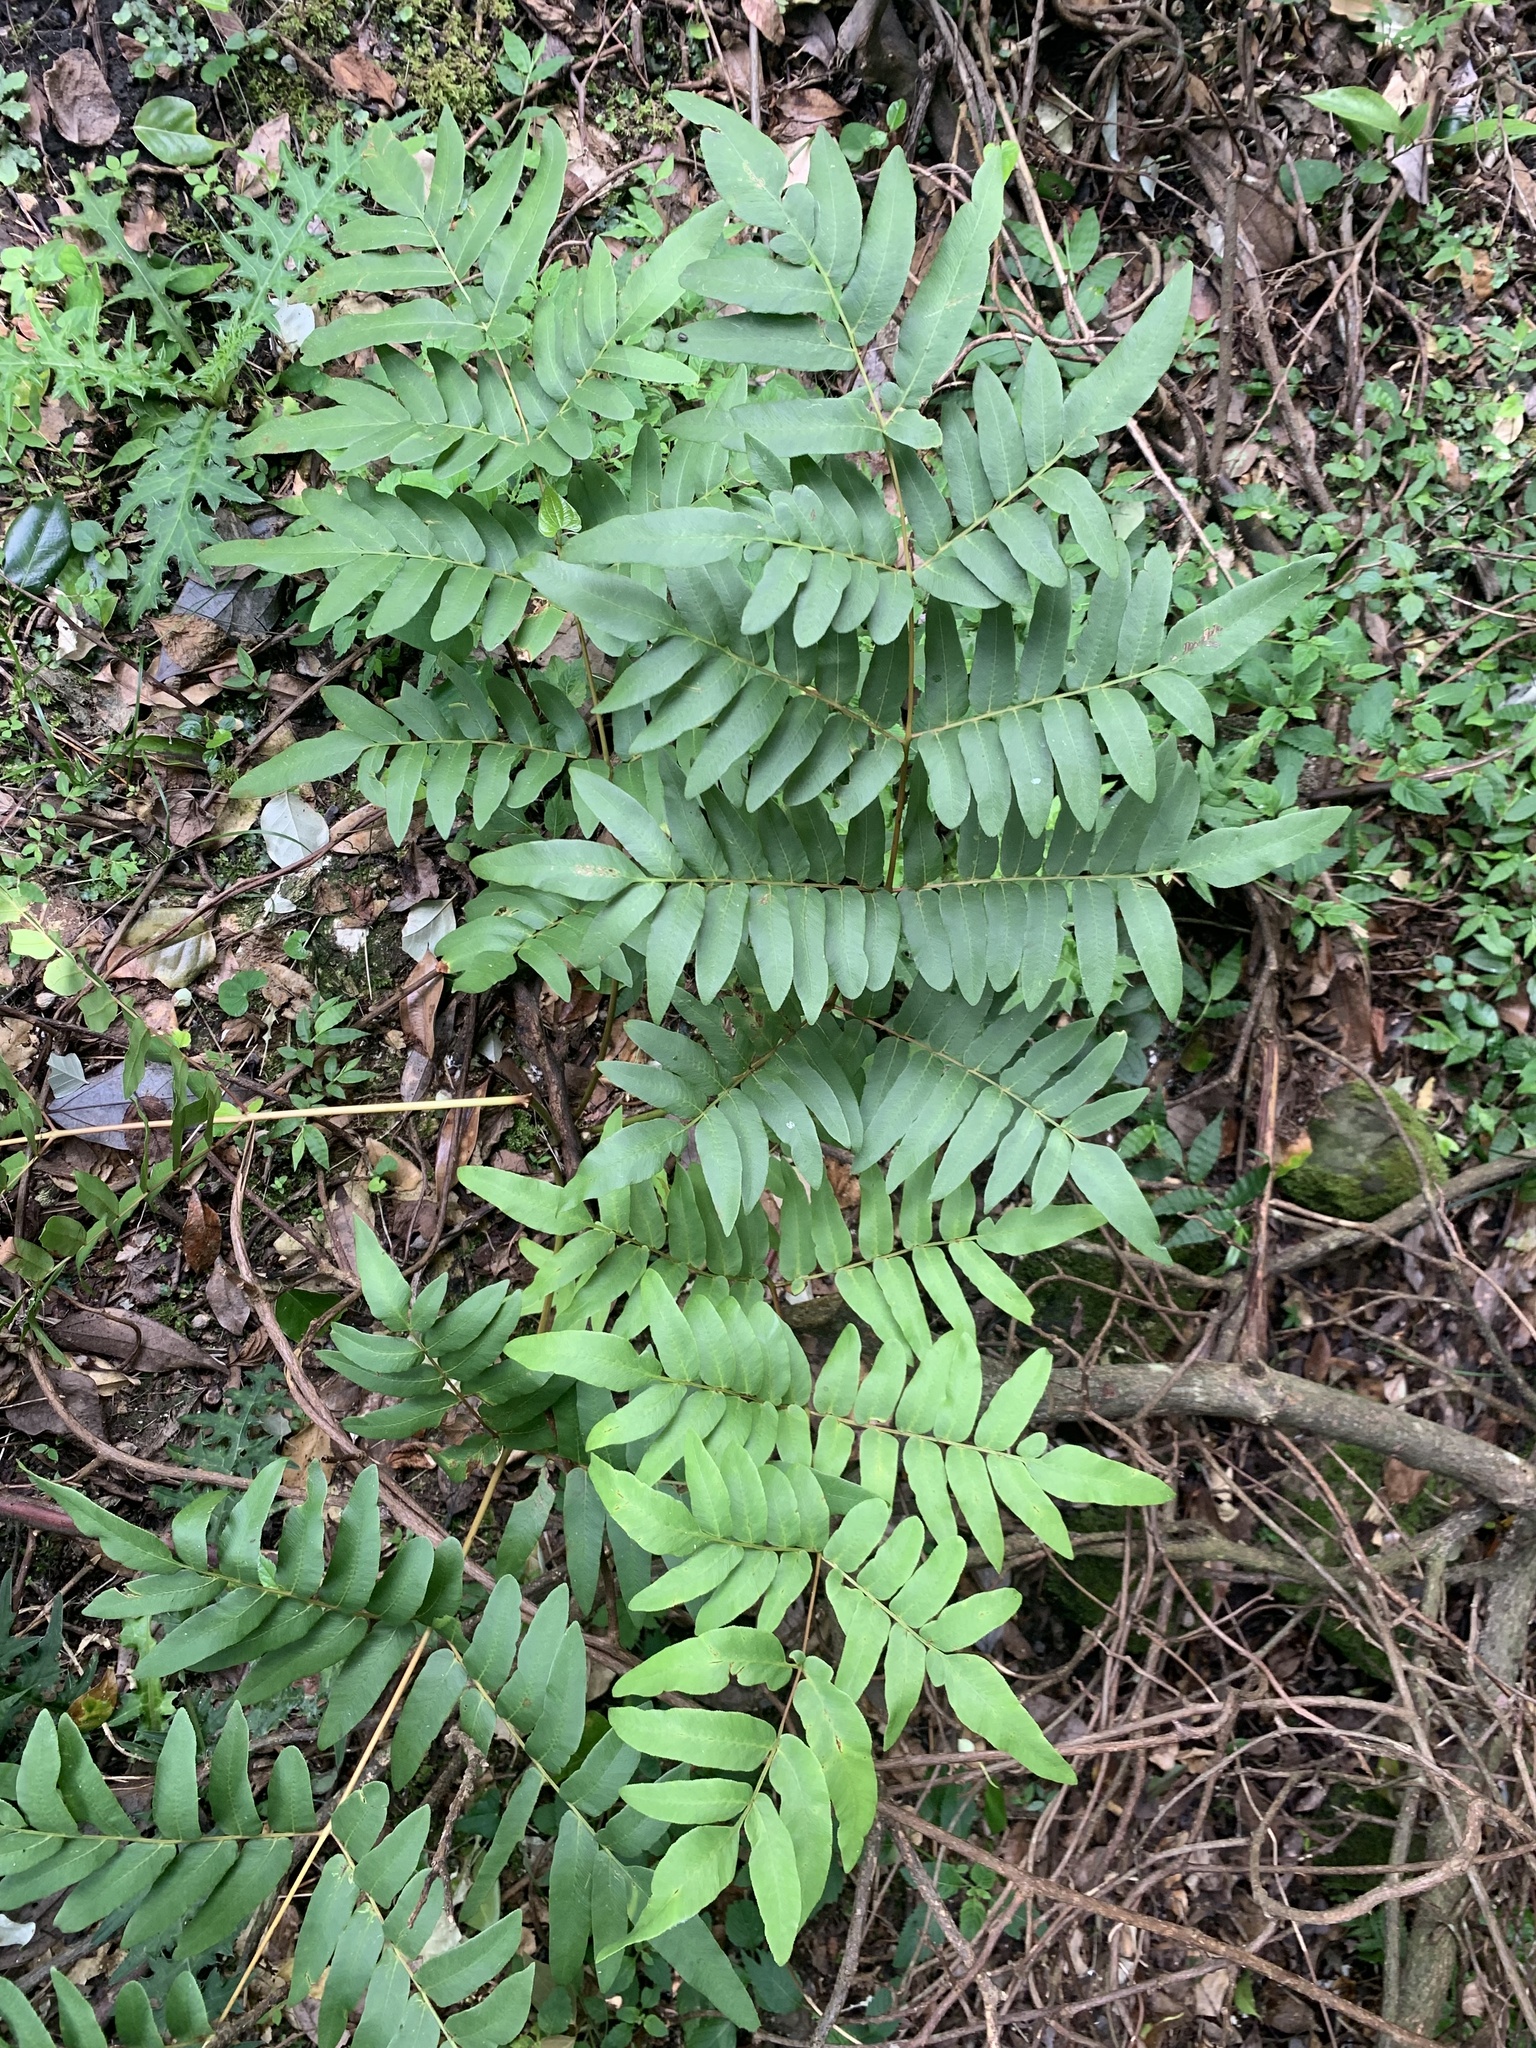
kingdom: Plantae
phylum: Tracheophyta
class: Polypodiopsida
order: Osmundales
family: Osmundaceae
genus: Osmunda
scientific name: Osmunda japonica
